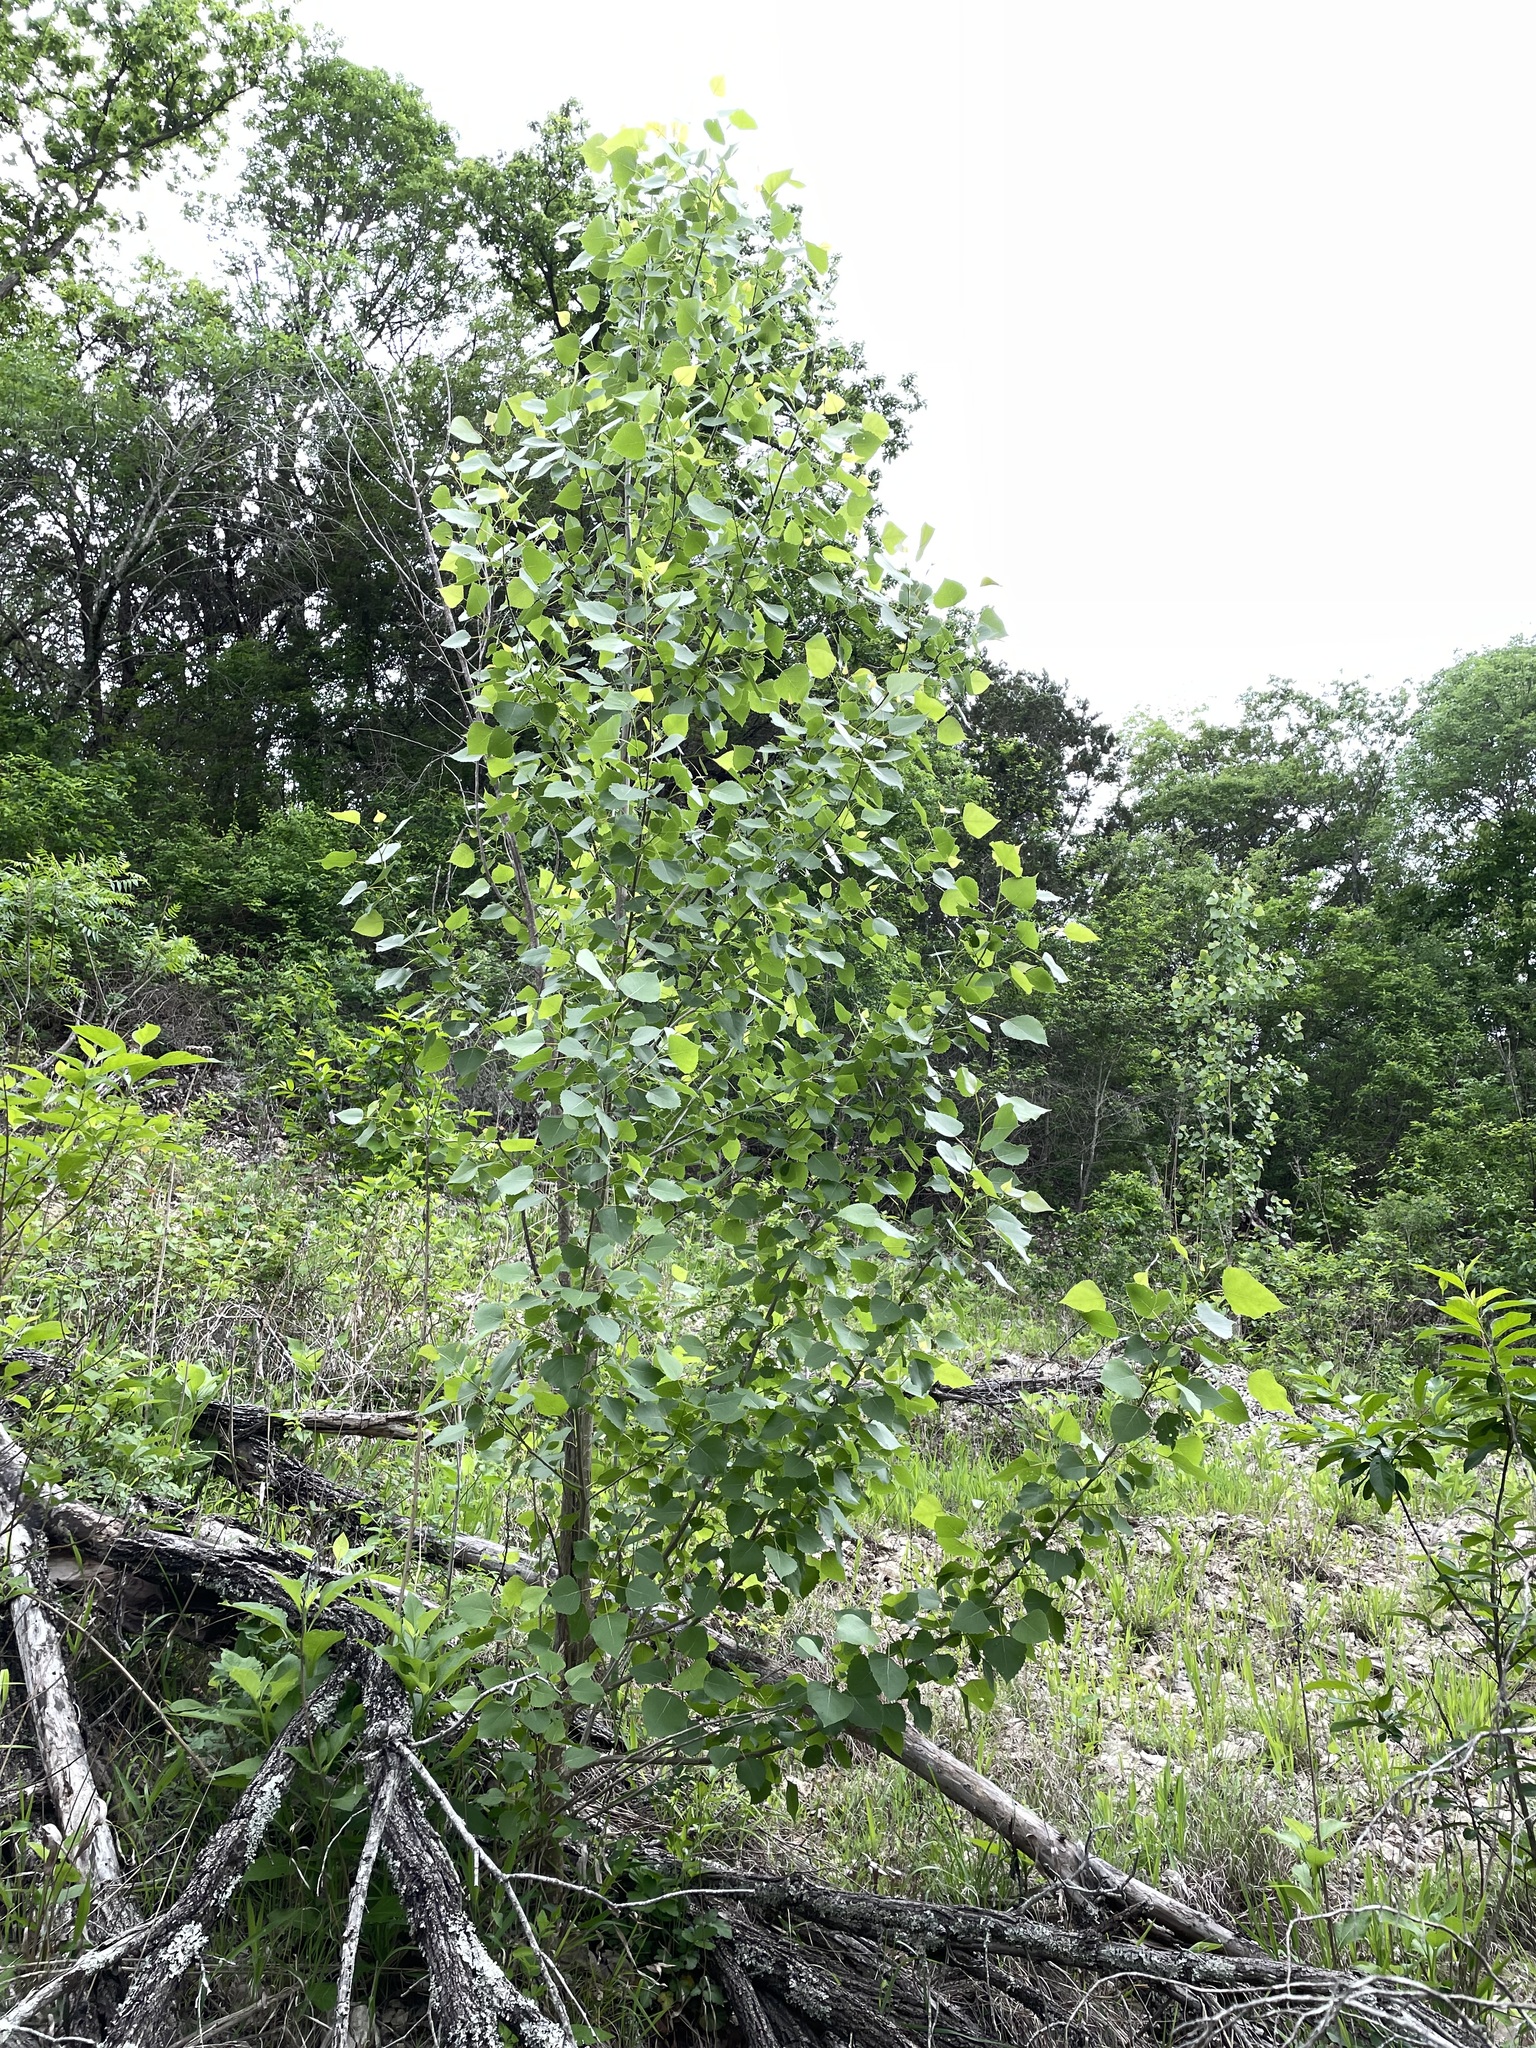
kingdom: Plantae
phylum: Tracheophyta
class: Magnoliopsida
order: Malpighiales
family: Salicaceae
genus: Populus
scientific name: Populus deltoides
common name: Eastern cottonwood
